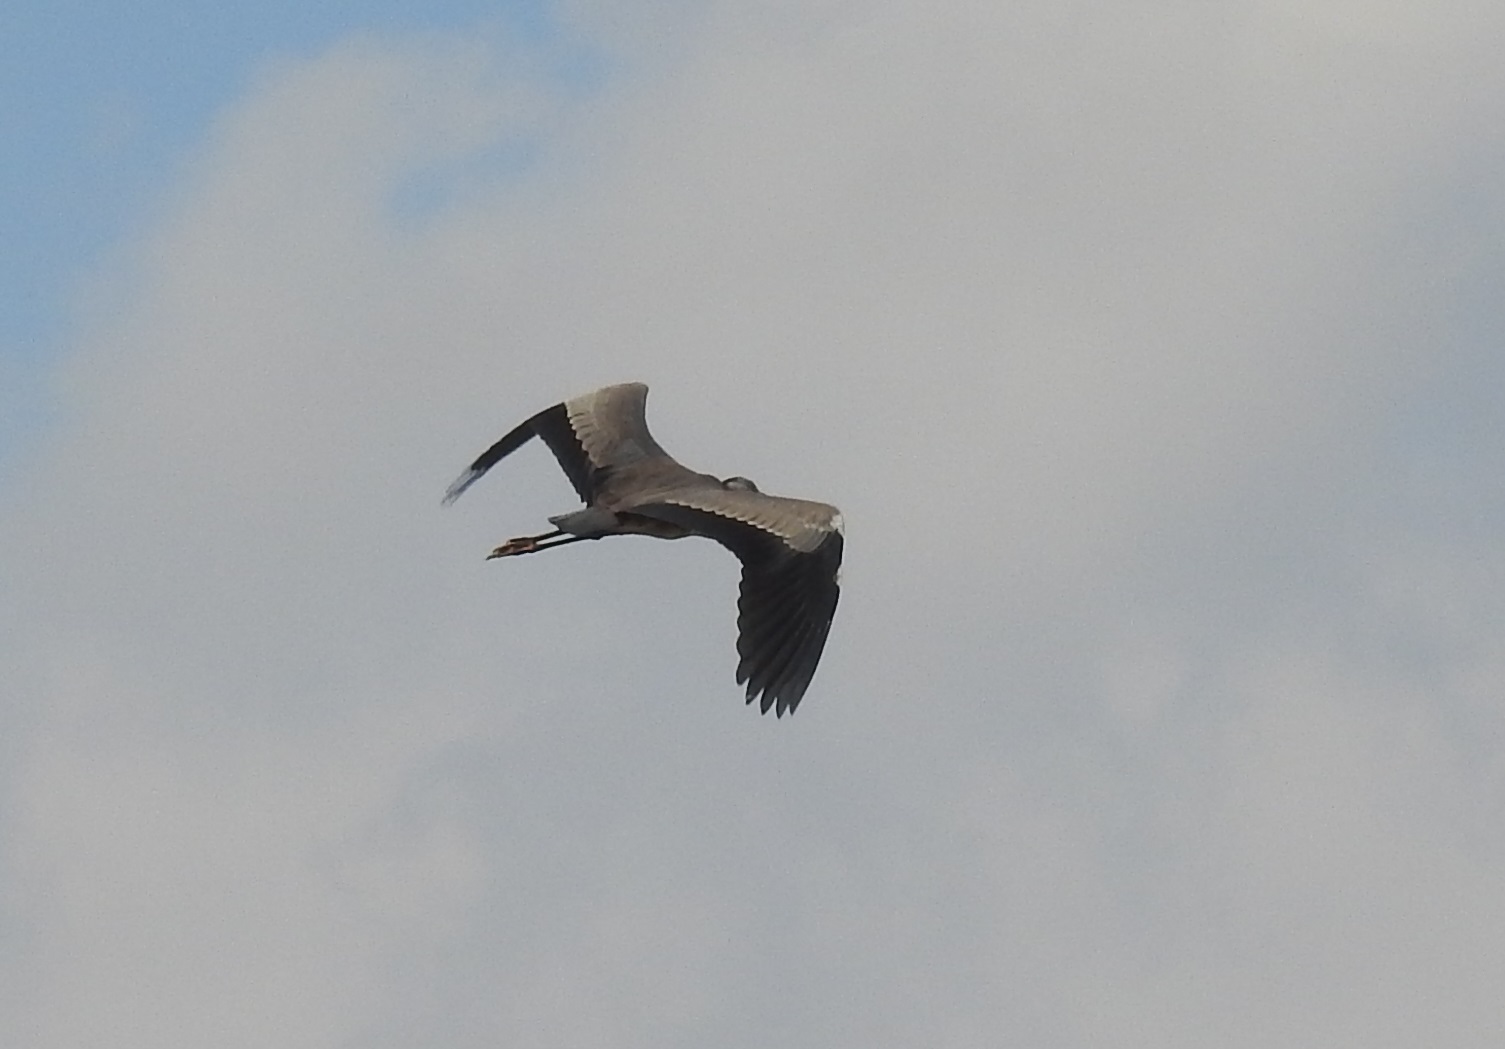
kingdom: Animalia
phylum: Chordata
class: Aves
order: Pelecaniformes
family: Ardeidae
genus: Ardea
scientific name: Ardea cinerea
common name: Grey heron
